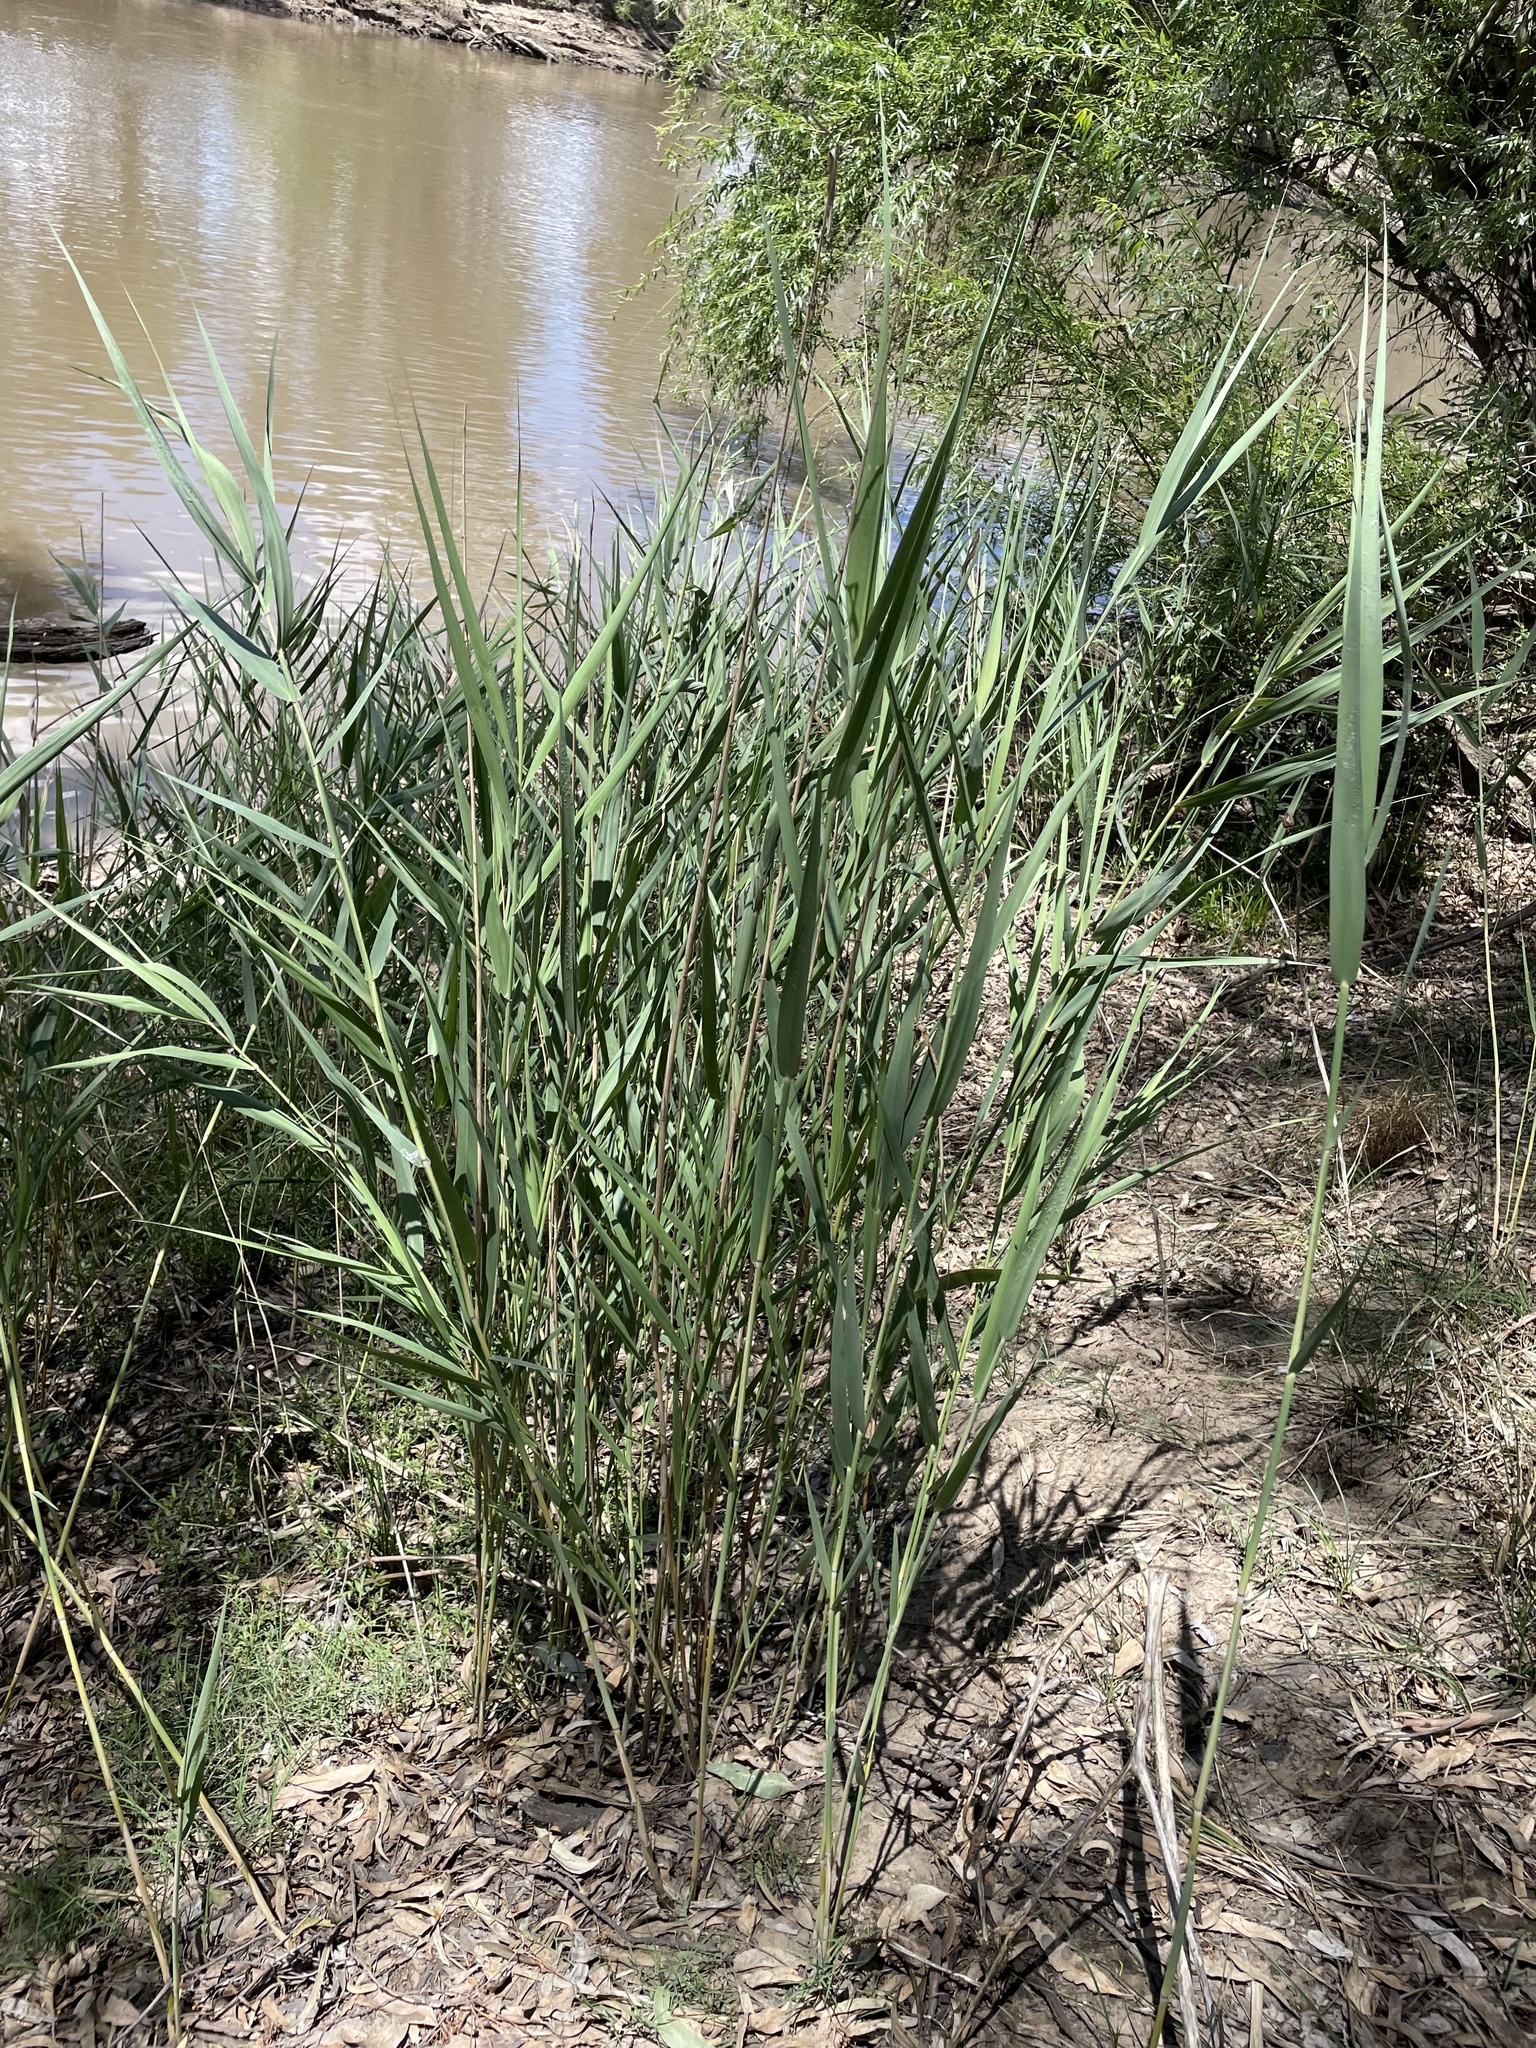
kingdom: Plantae
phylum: Tracheophyta
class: Liliopsida
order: Poales
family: Poaceae
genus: Phragmites
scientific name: Phragmites australis
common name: Common reed
